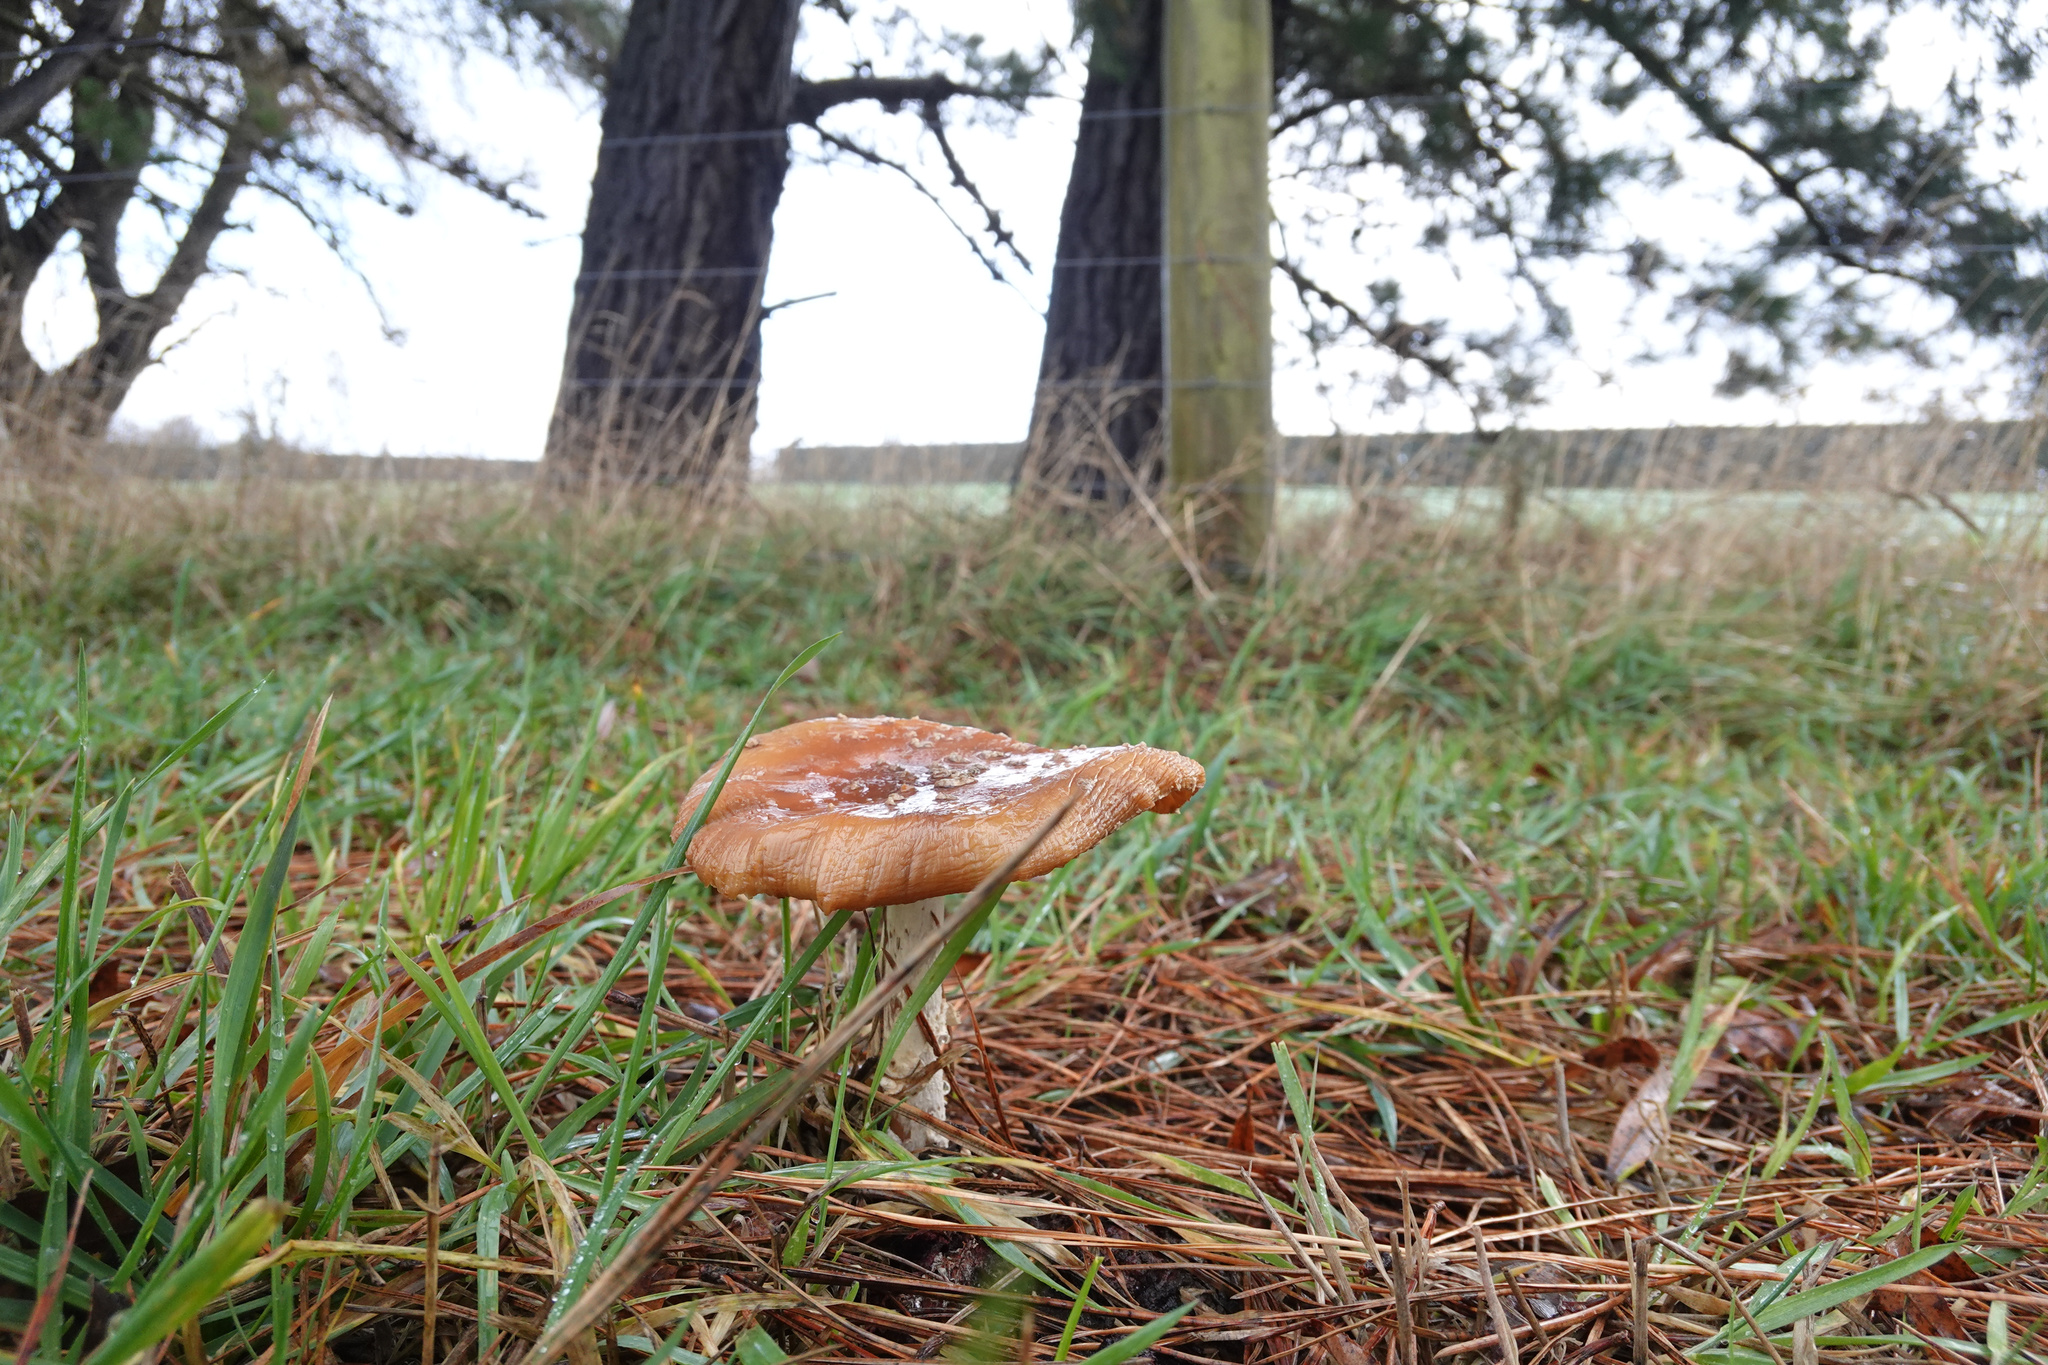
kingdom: Fungi
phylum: Basidiomycota
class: Agaricomycetes
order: Agaricales
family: Amanitaceae
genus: Amanita
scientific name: Amanita muscaria
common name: Fly agaric
